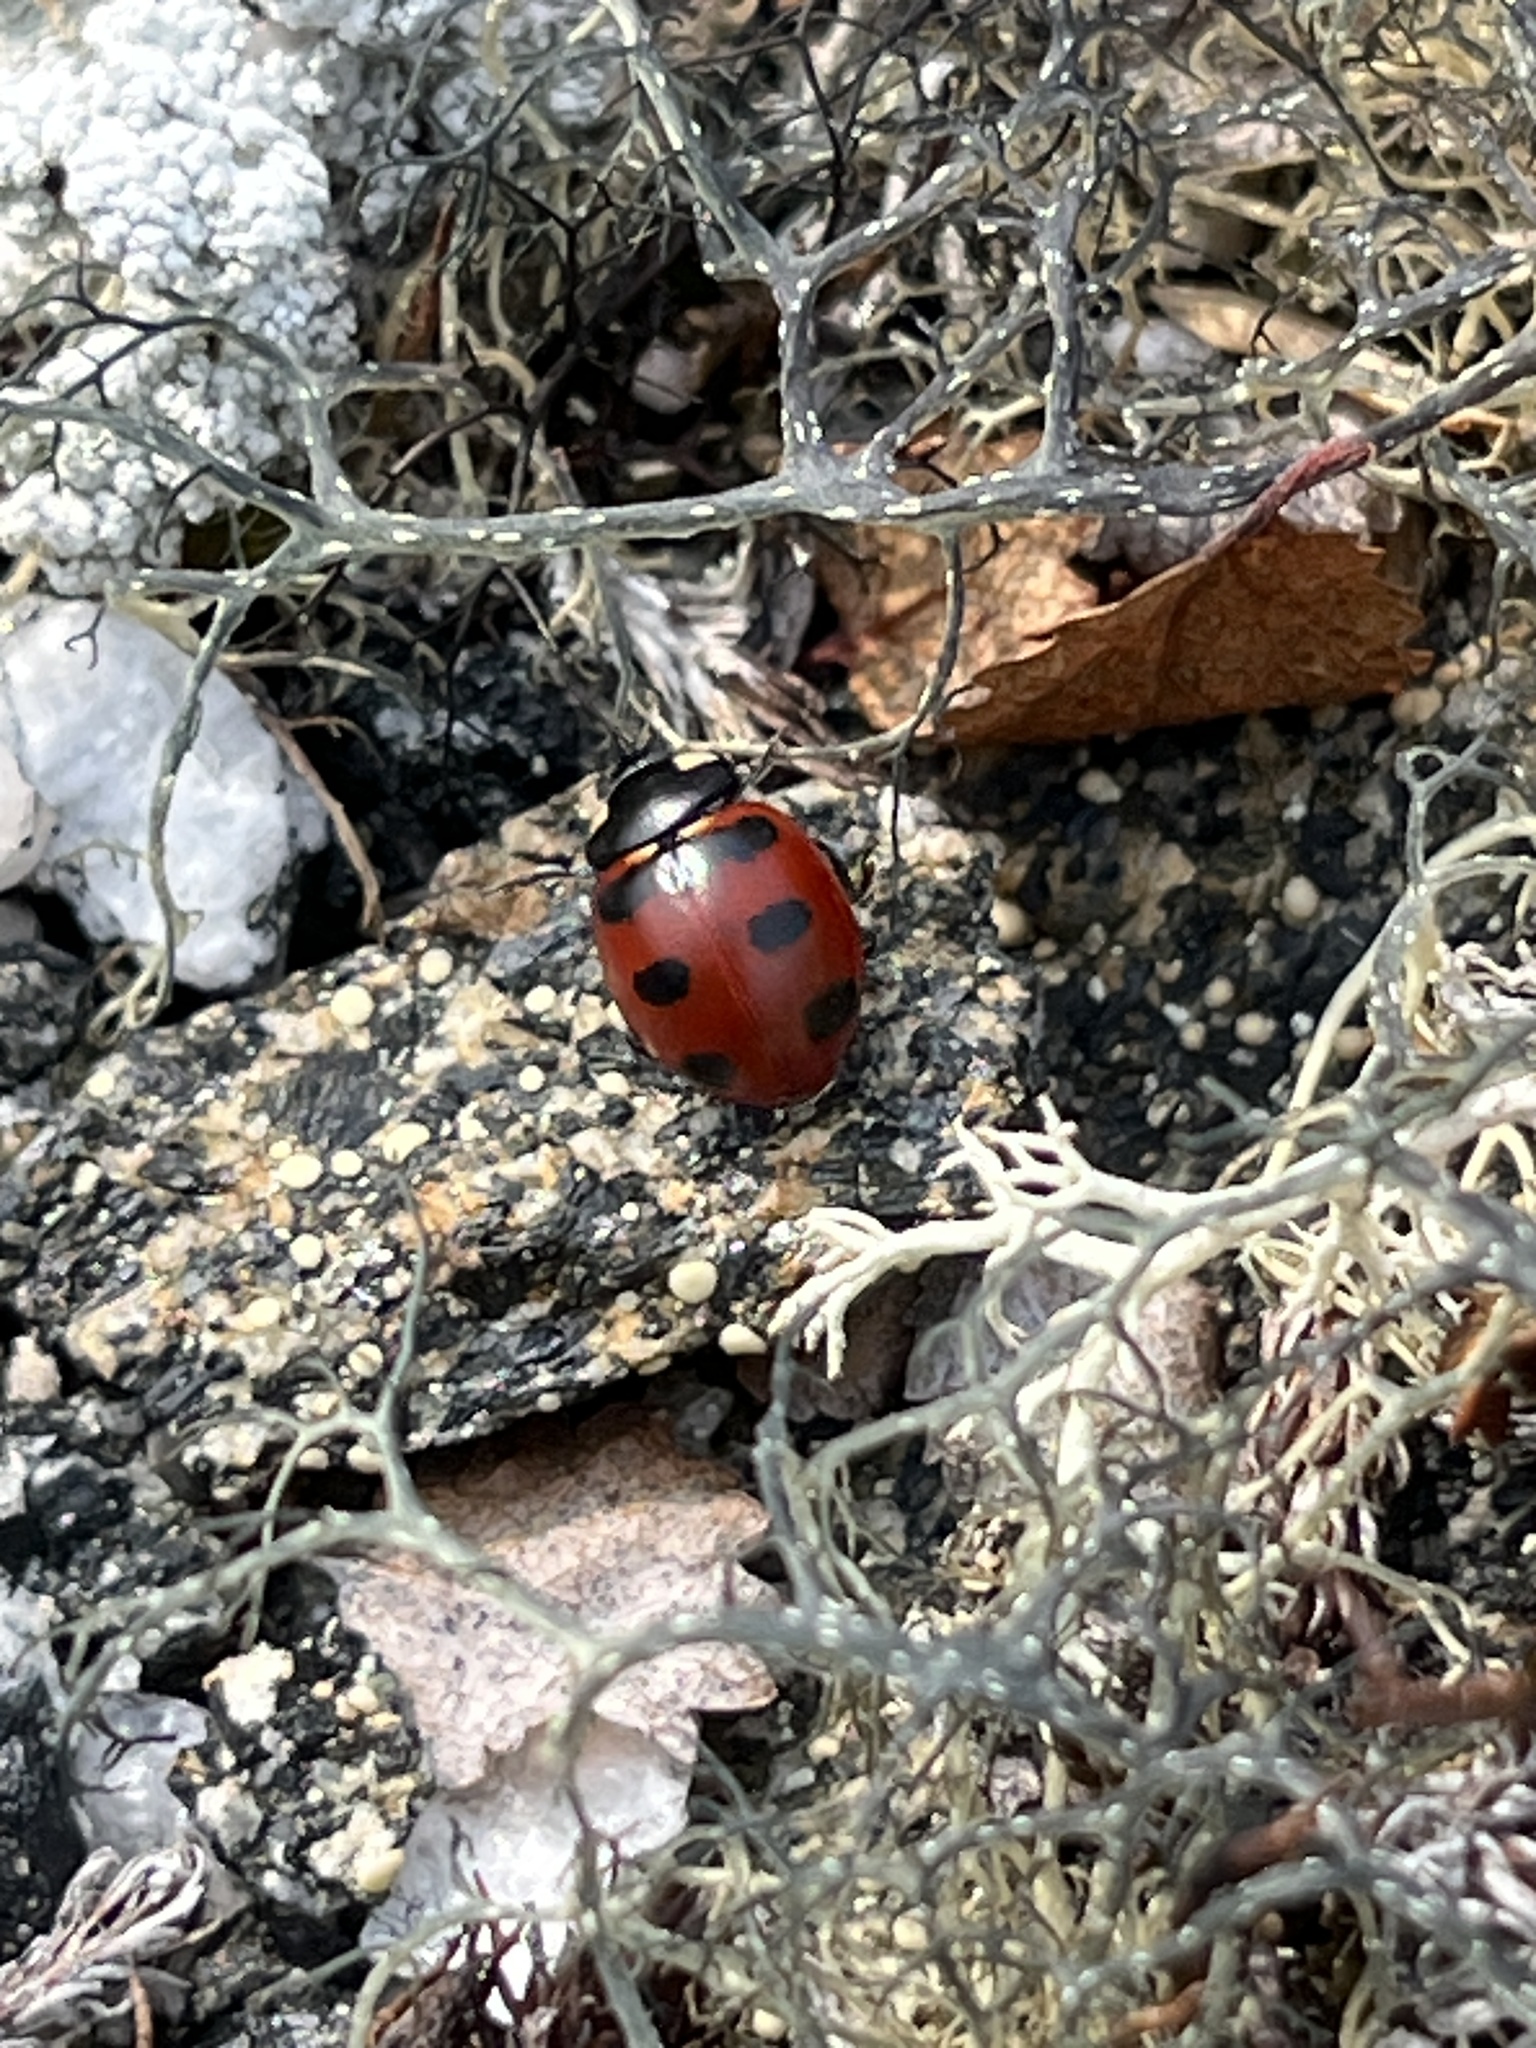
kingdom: Animalia
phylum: Arthropoda
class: Insecta
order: Coleoptera
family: Coccinellidae
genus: Coccinella
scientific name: Coccinella transversoguttata
